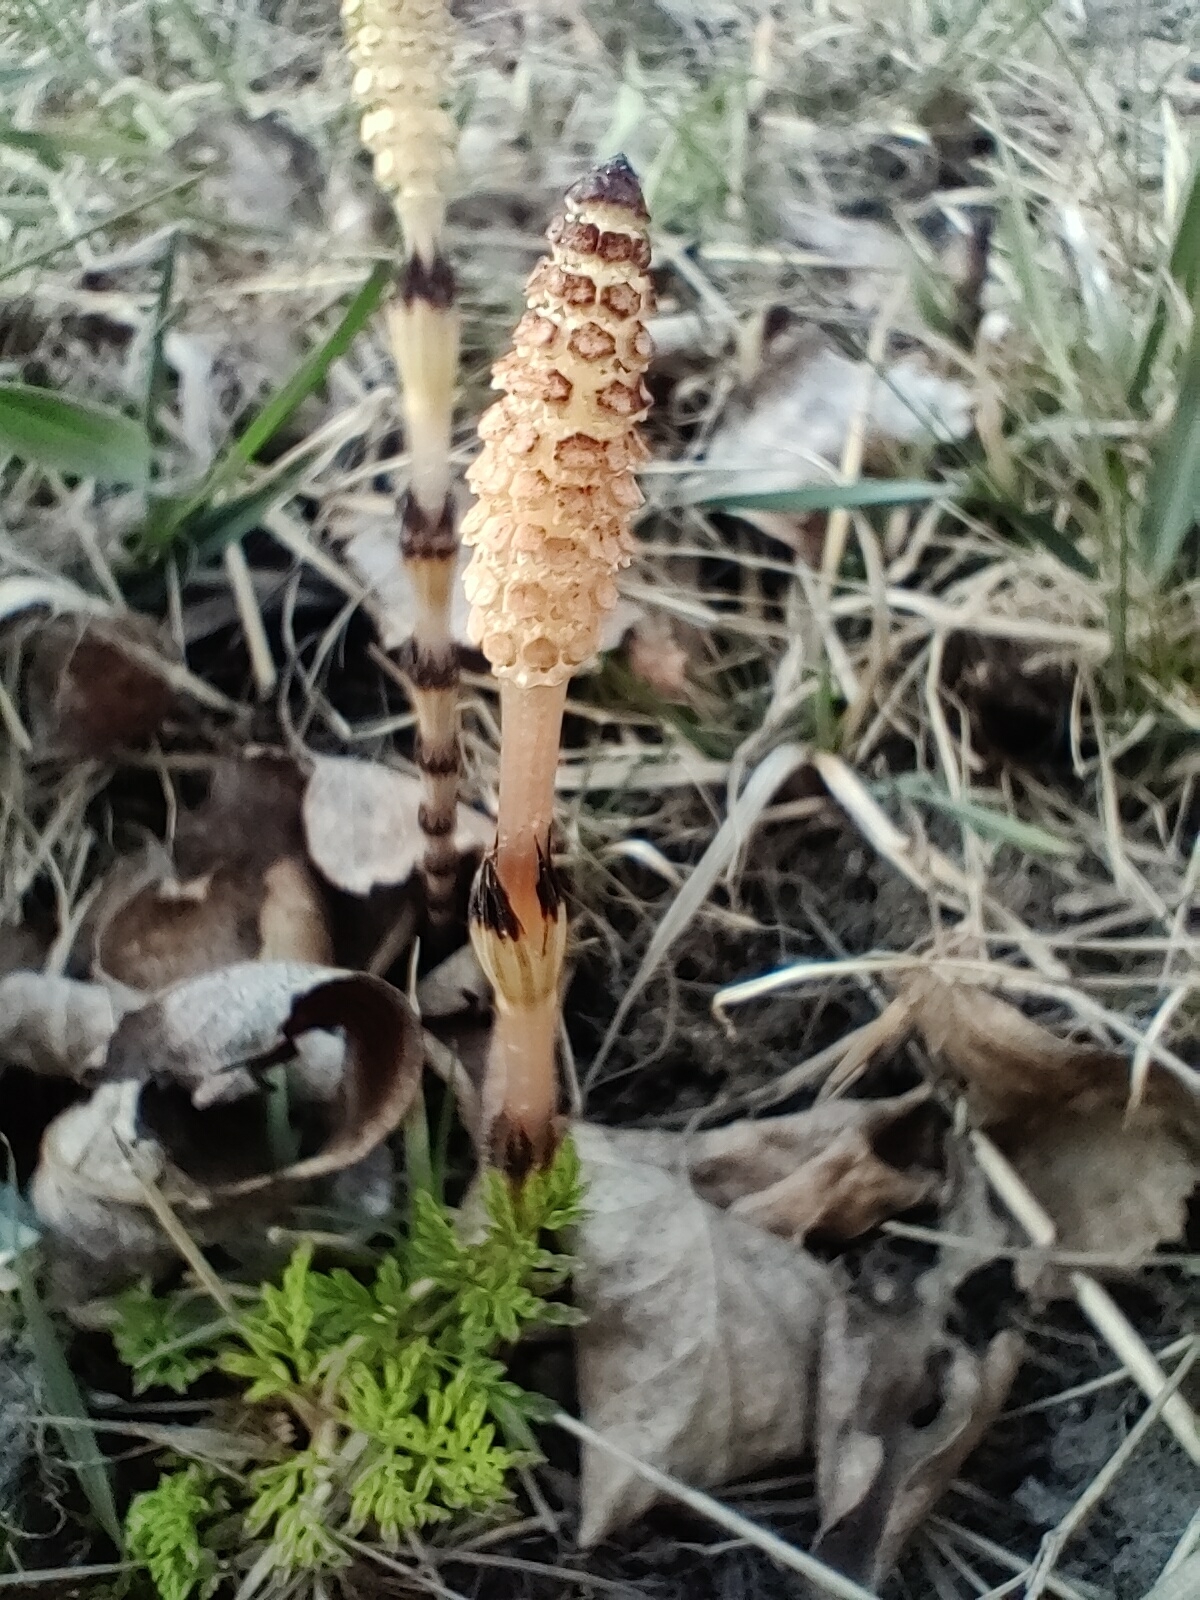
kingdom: Plantae
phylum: Tracheophyta
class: Polypodiopsida
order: Equisetales
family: Equisetaceae
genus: Equisetum
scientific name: Equisetum arvense
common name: Field horsetail
